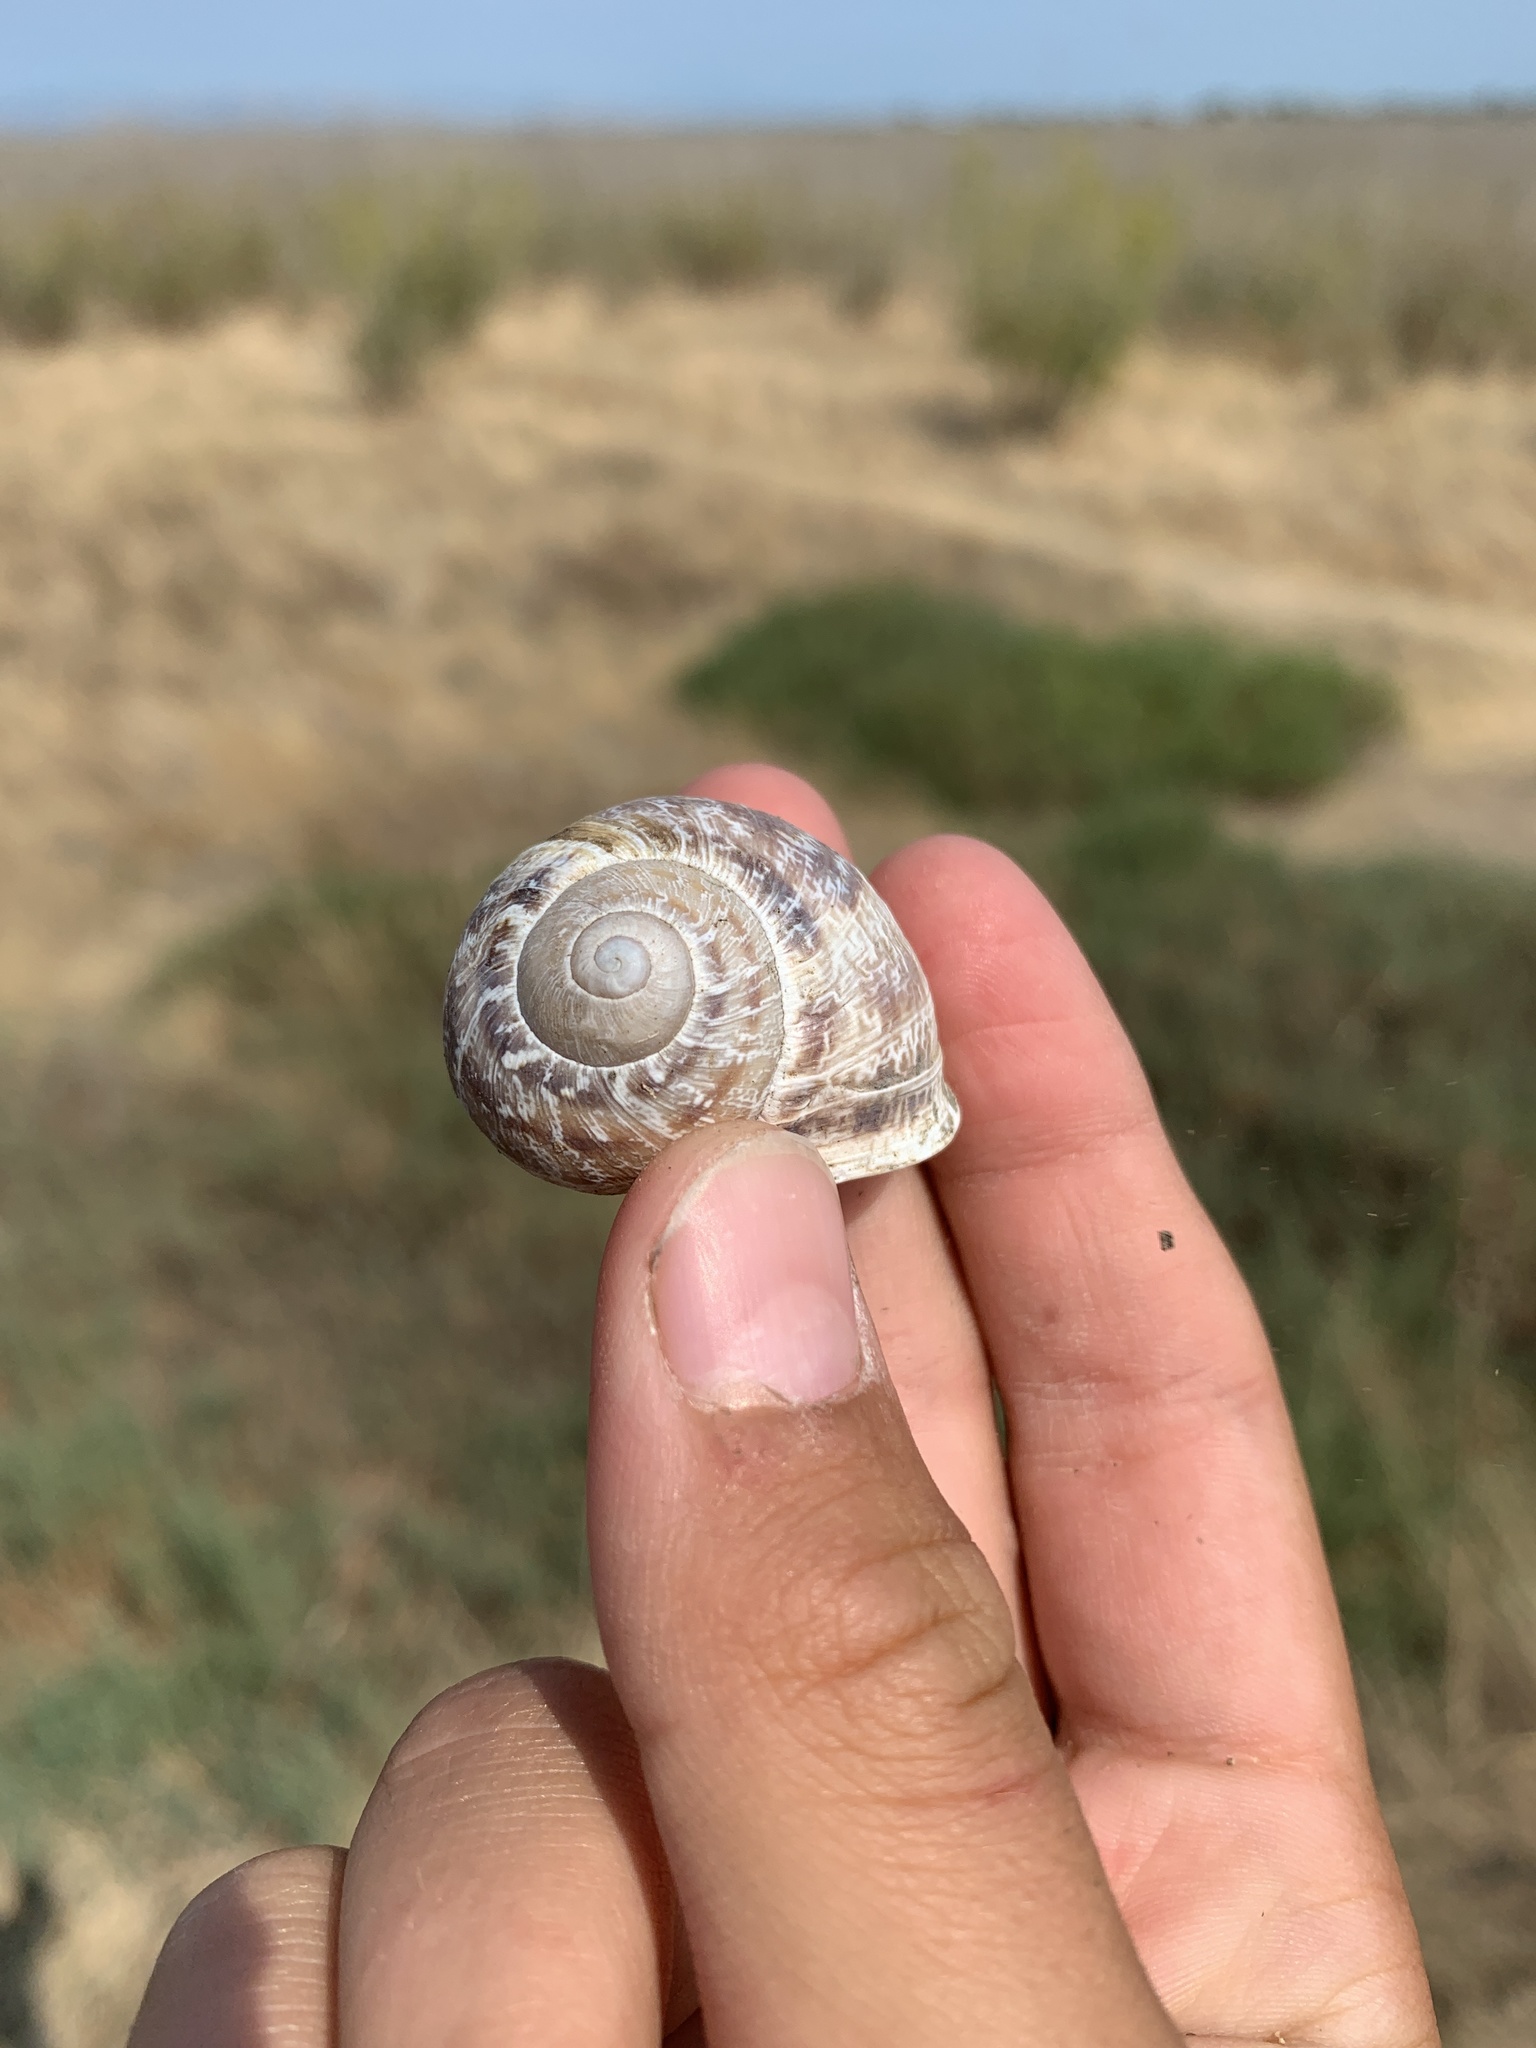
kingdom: Animalia
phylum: Mollusca
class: Gastropoda
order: Stylommatophora
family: Helicidae
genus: Cornu
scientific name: Cornu aspersum
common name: Brown garden snail
